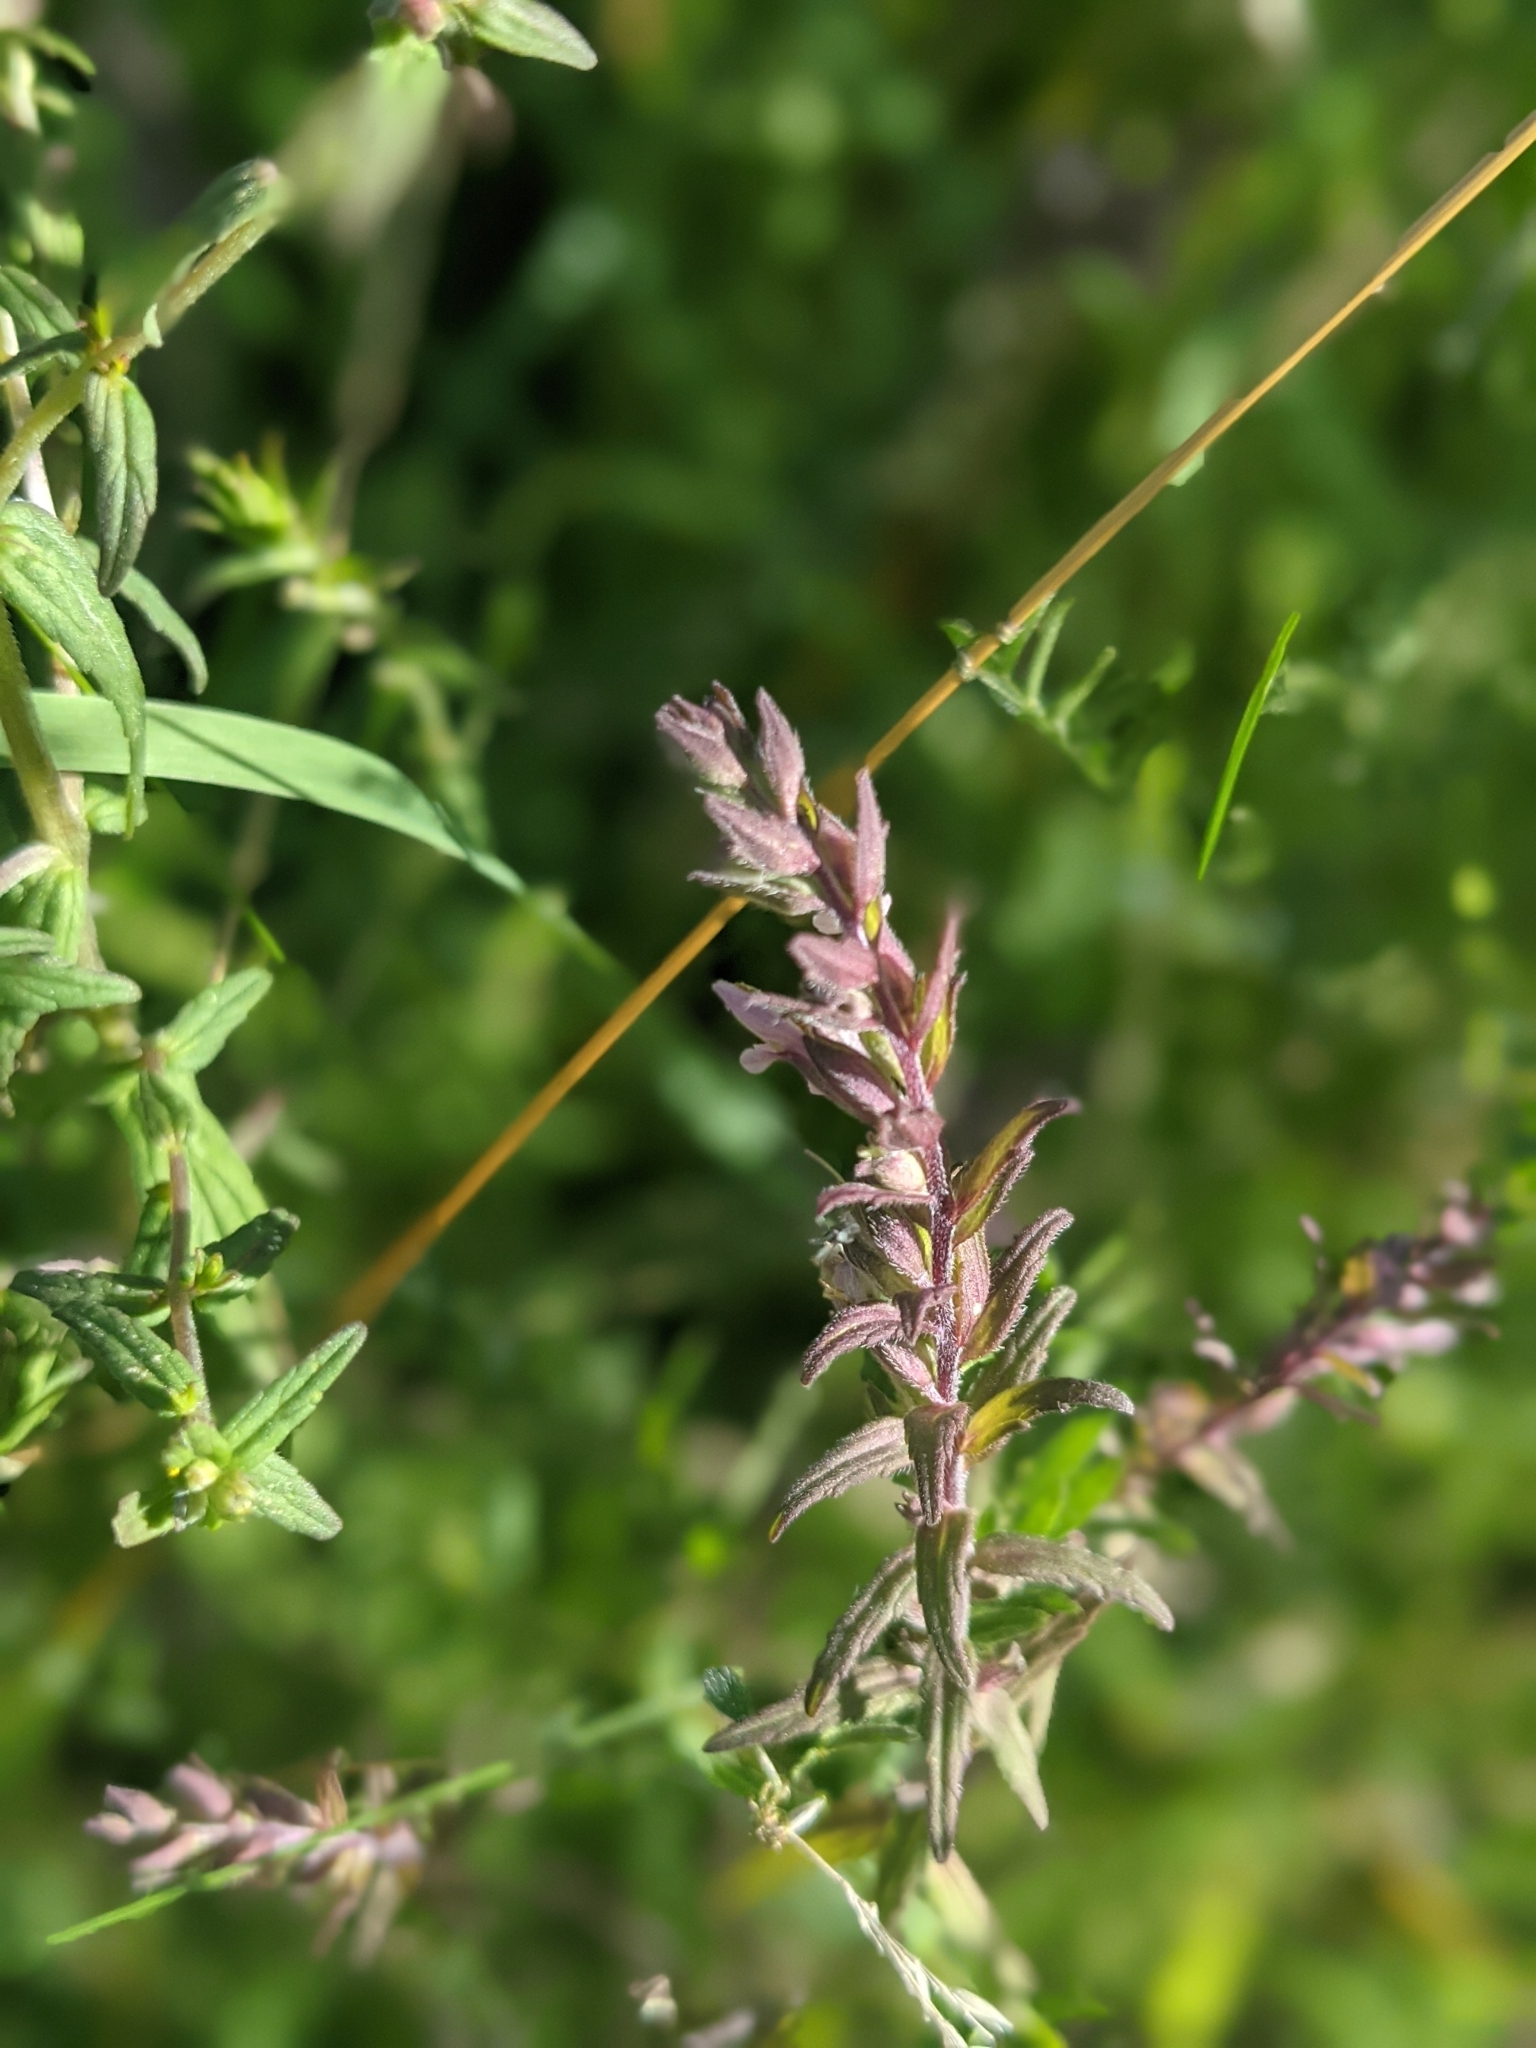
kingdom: Plantae
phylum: Tracheophyta
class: Magnoliopsida
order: Lamiales
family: Orobanchaceae
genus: Odontites
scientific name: Odontites vernus
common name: Red bartsia
